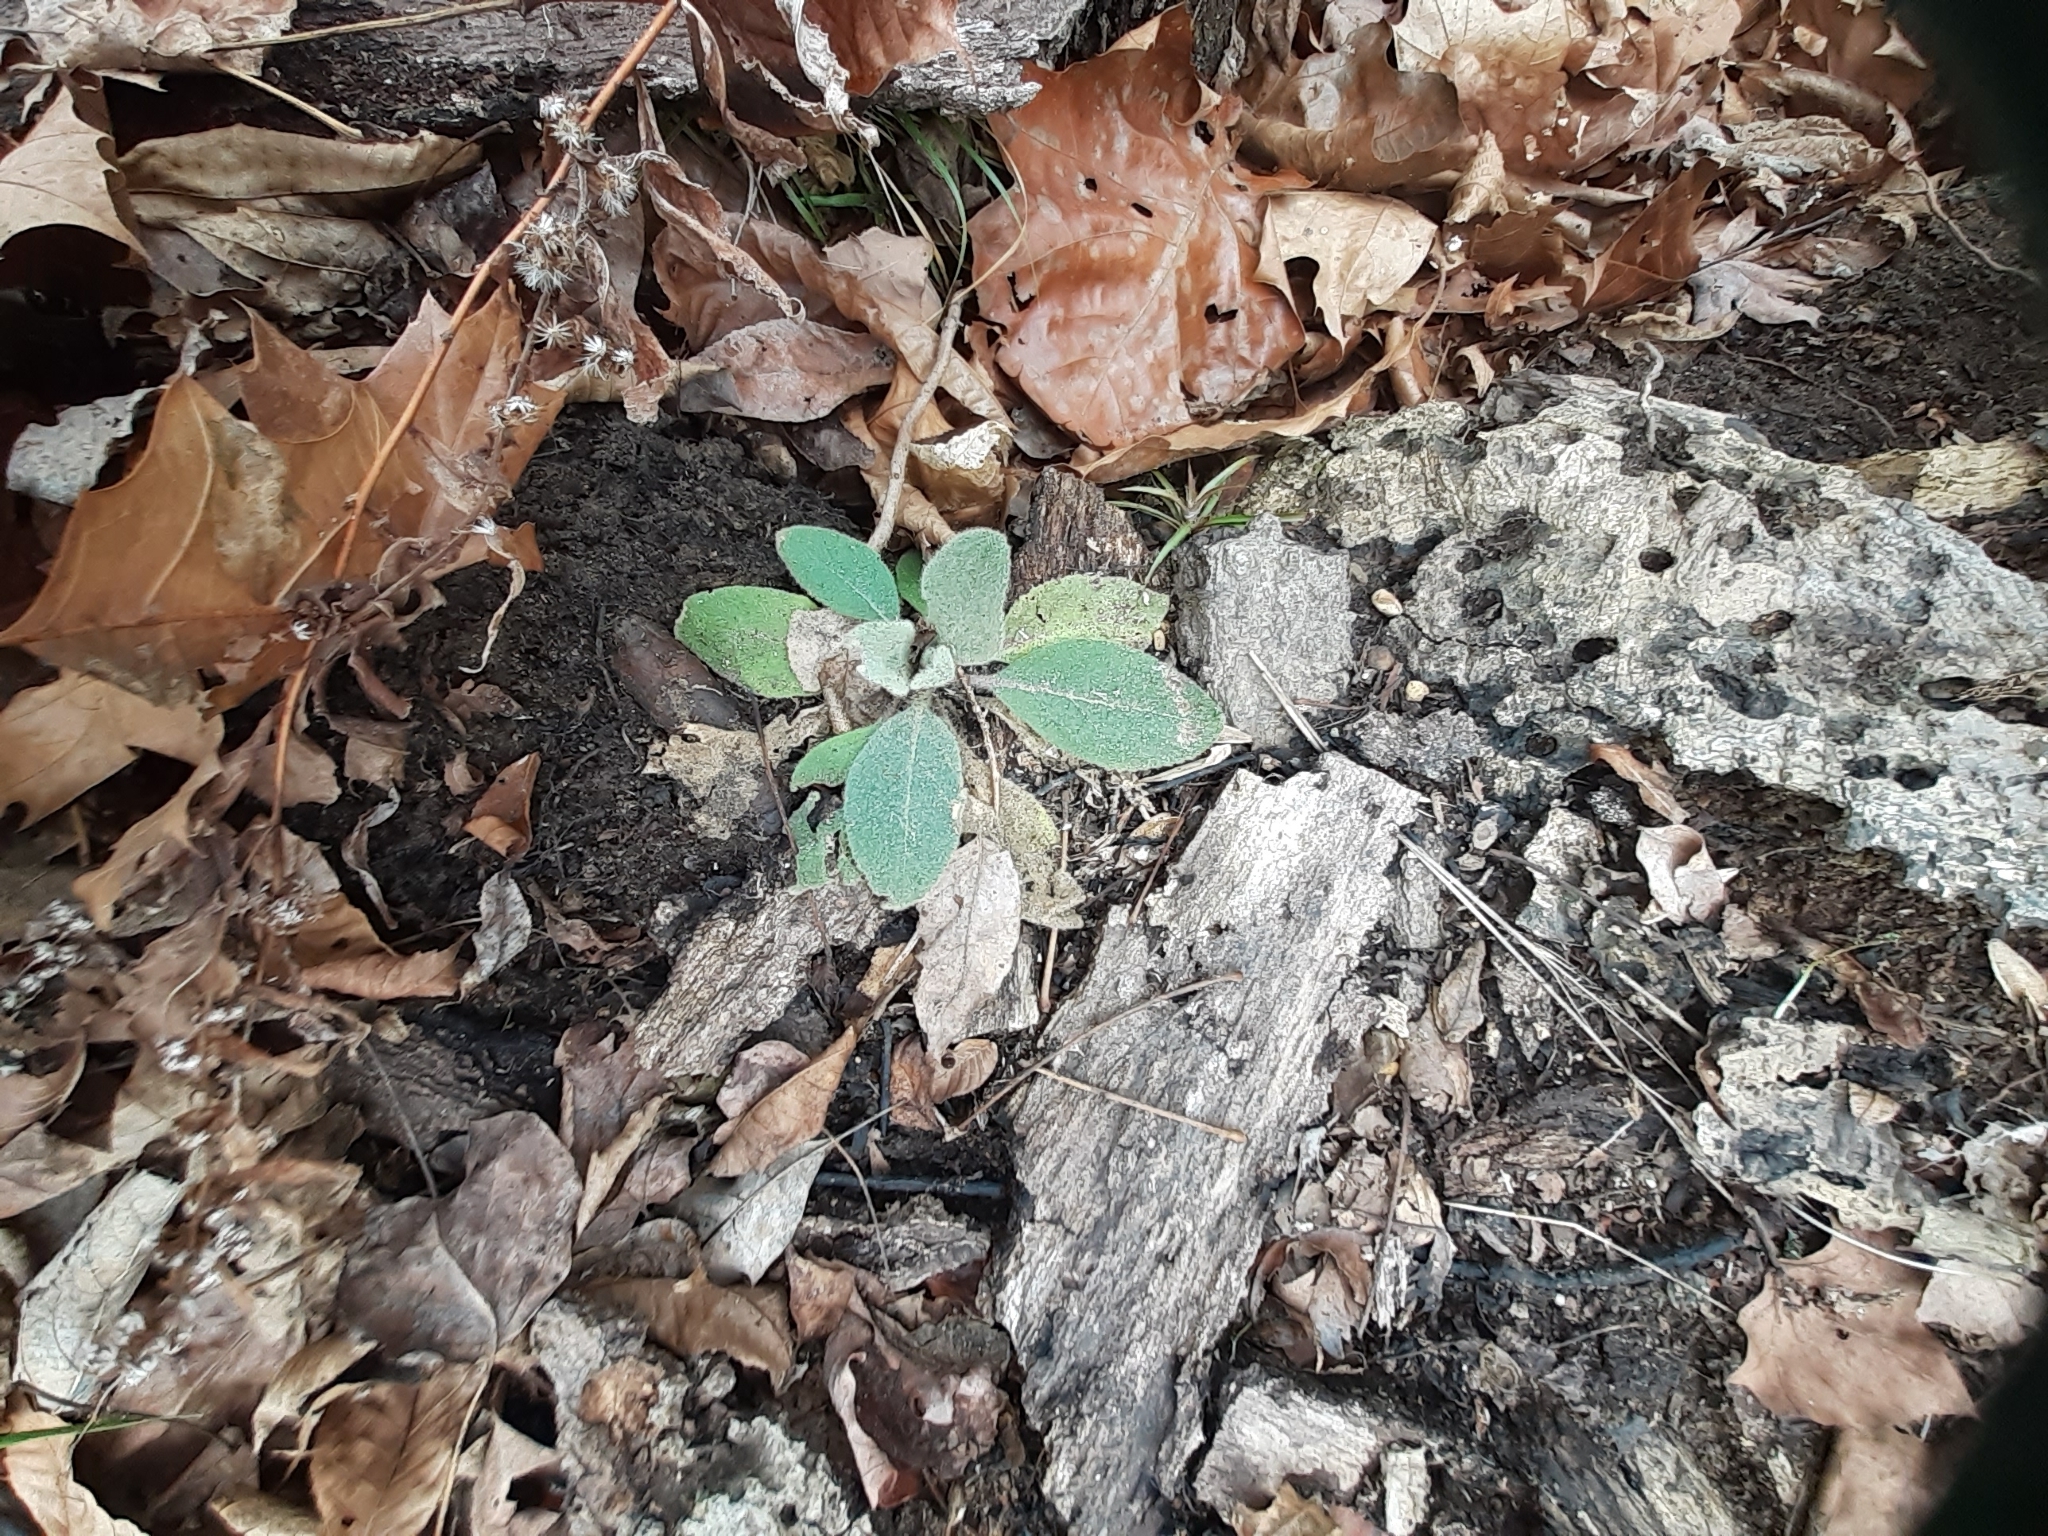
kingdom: Plantae
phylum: Tracheophyta
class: Magnoliopsida
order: Lamiales
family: Scrophulariaceae
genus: Verbascum
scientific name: Verbascum thapsus
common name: Common mullein
